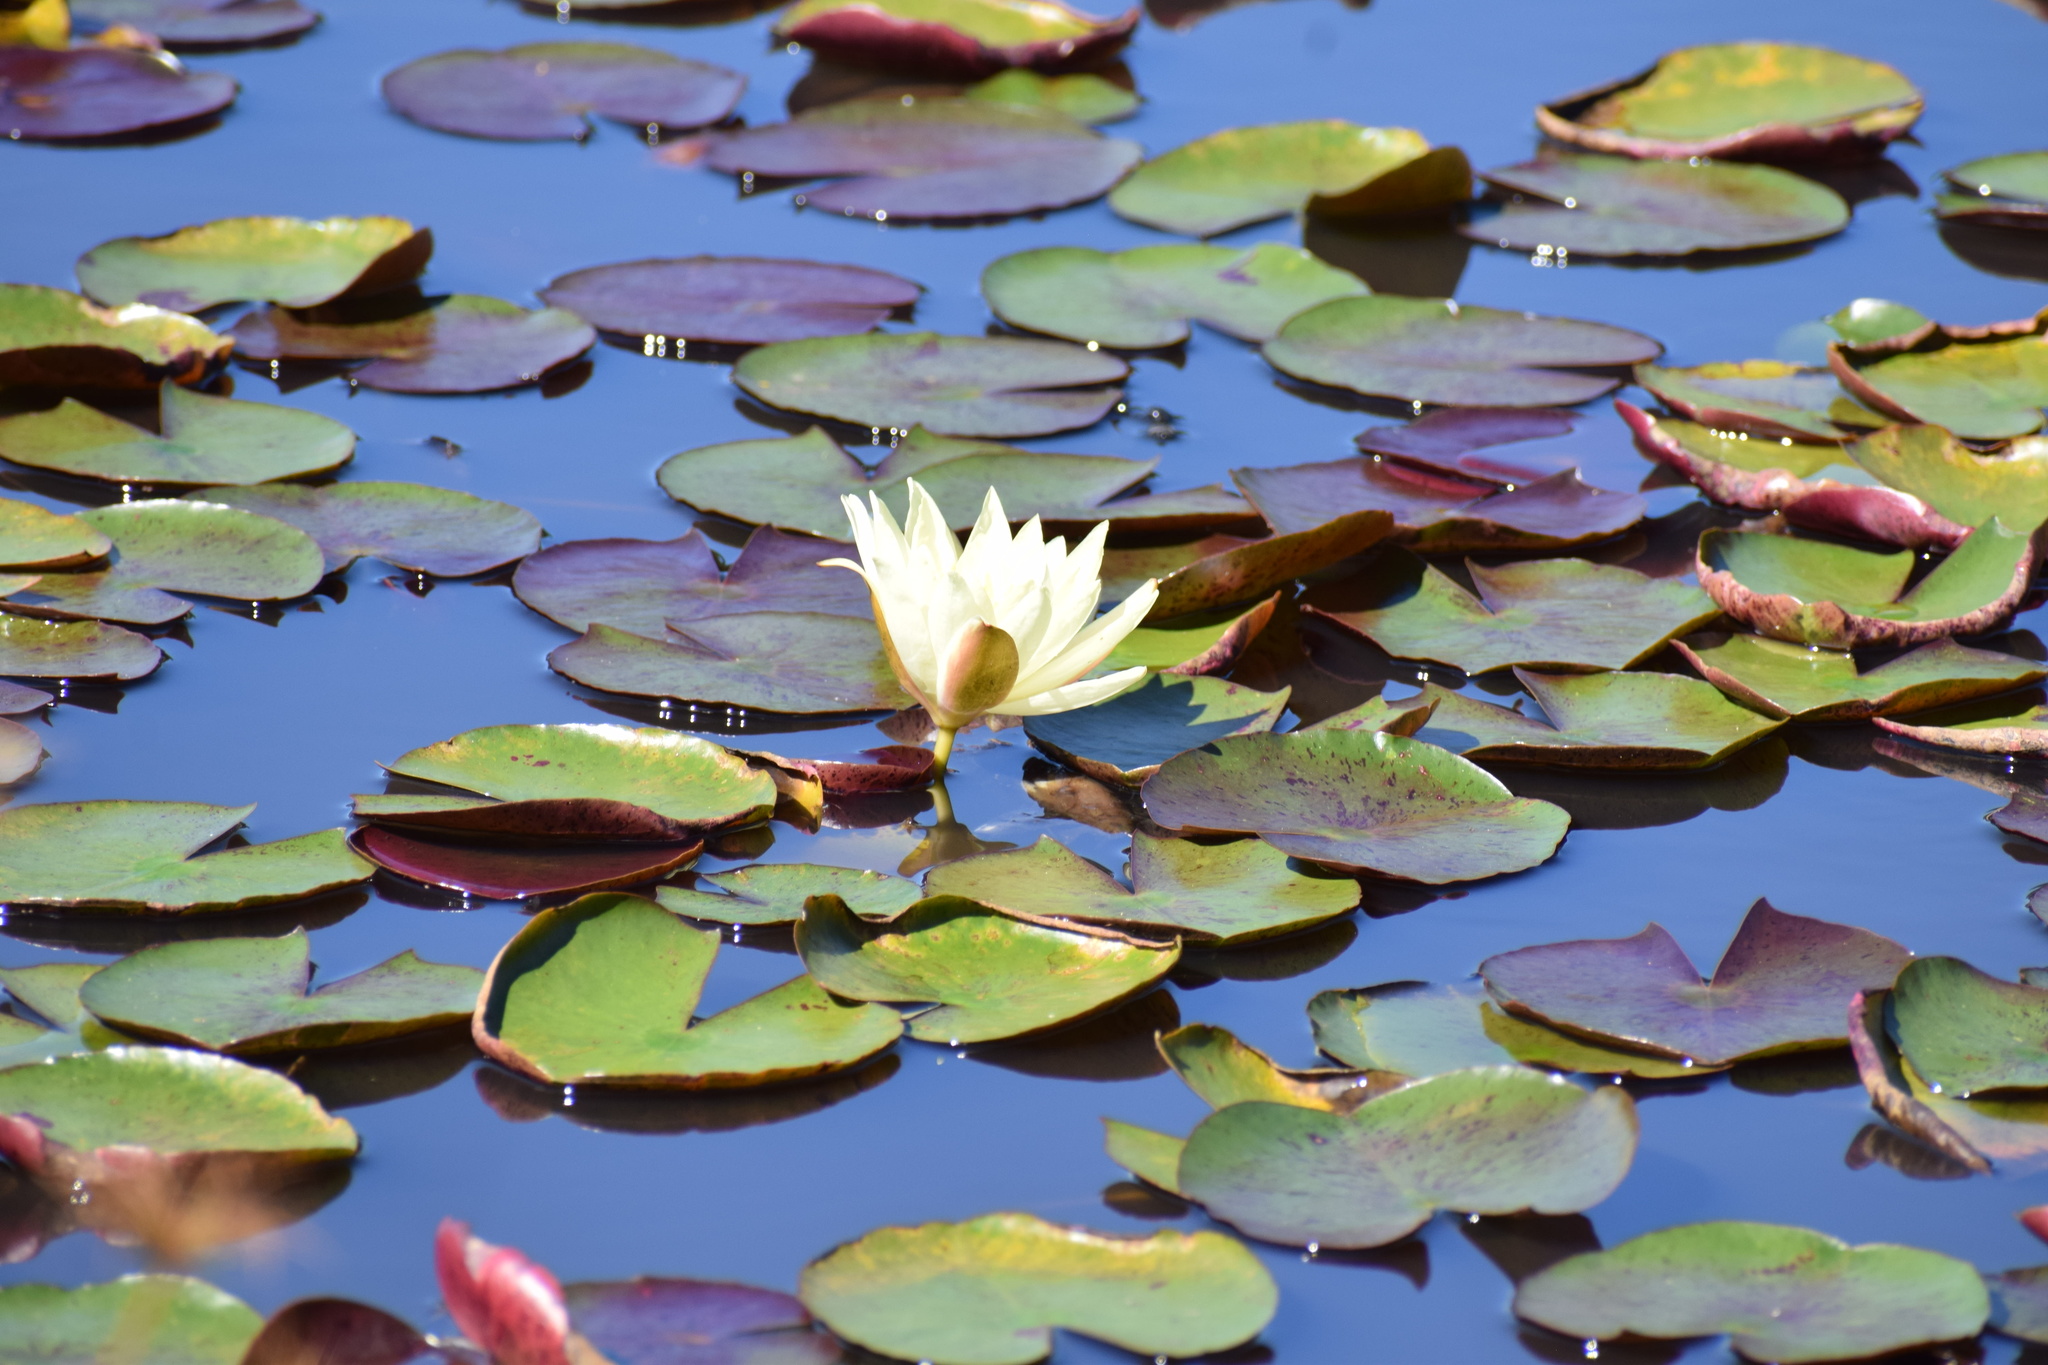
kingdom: Plantae
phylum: Tracheophyta
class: Magnoliopsida
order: Nymphaeales
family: Nymphaeaceae
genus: Nymphaea
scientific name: Nymphaea mexicana
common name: Banana water-lily
